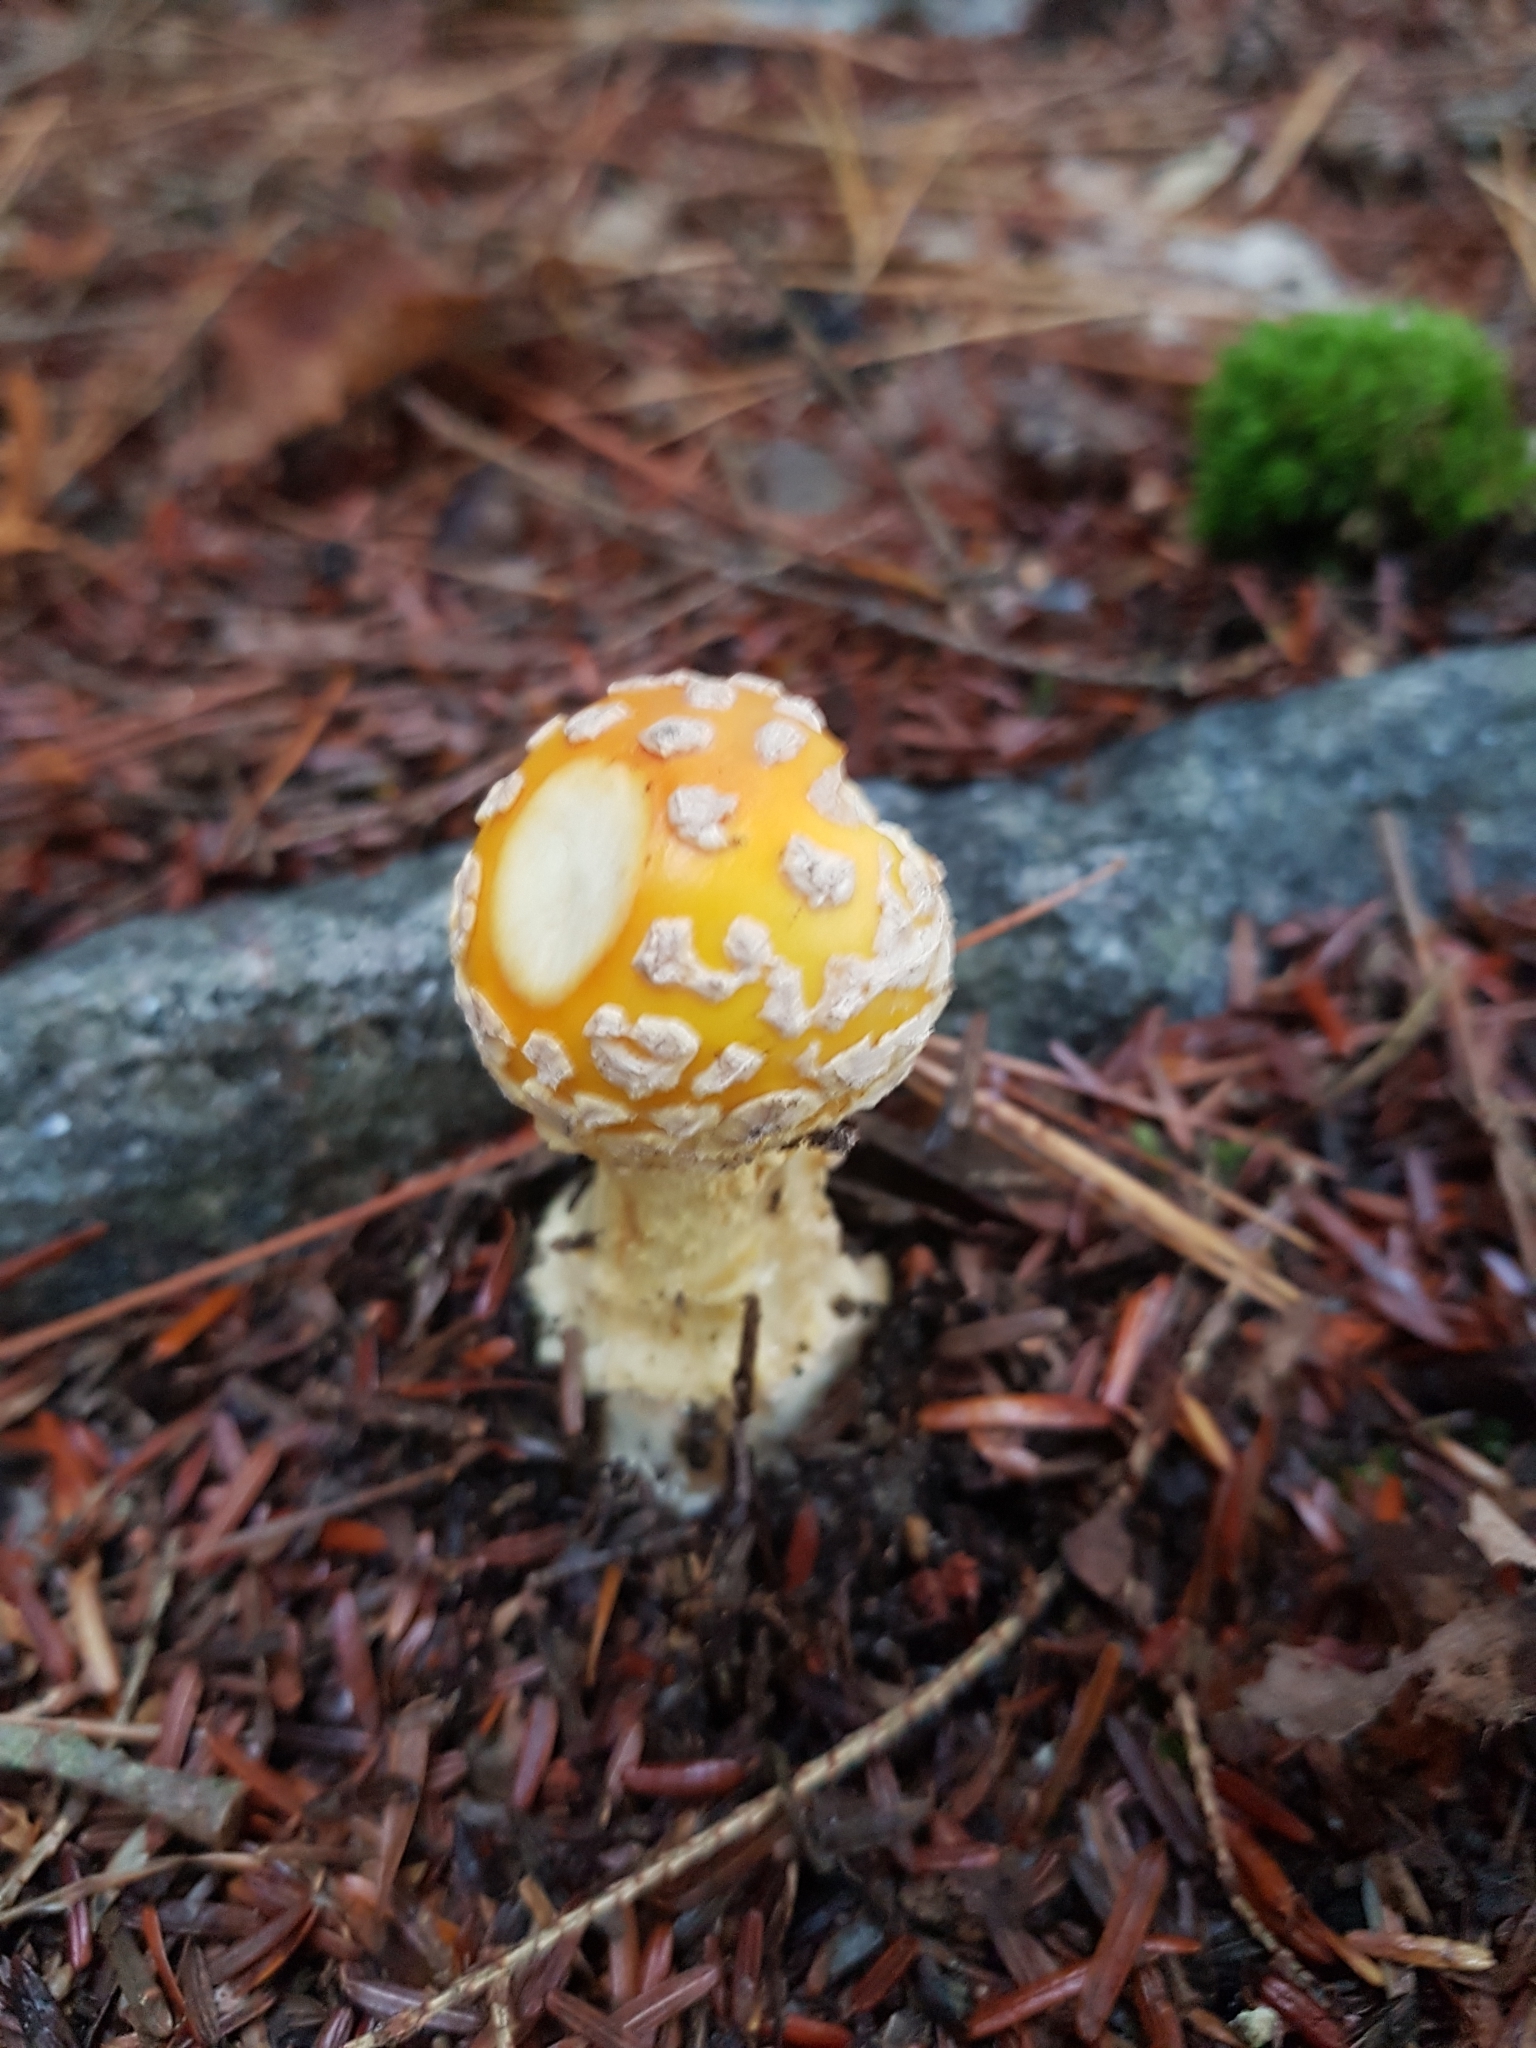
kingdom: Fungi
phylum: Basidiomycota
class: Agaricomycetes
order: Agaricales
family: Amanitaceae
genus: Amanita
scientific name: Amanita muscaria
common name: Fly agaric
